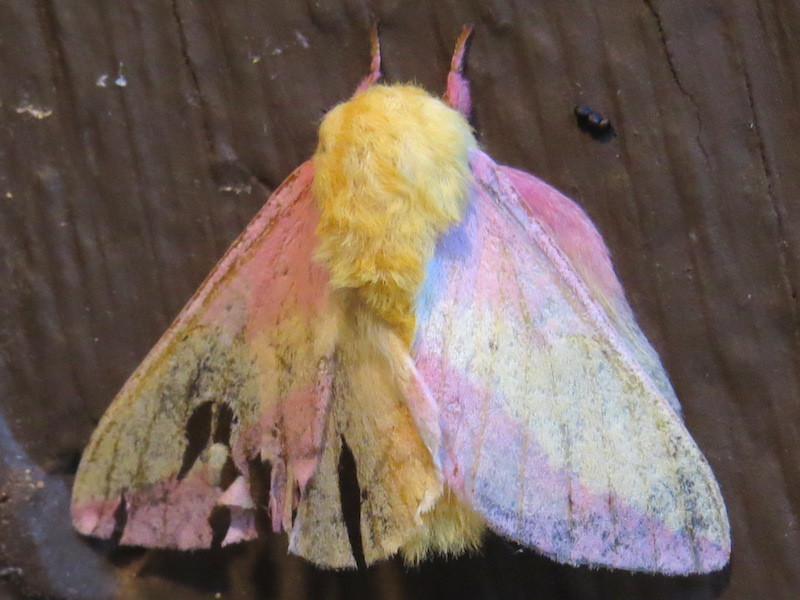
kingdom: Animalia
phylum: Arthropoda
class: Insecta
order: Lepidoptera
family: Saturniidae
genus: Dryocampa
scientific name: Dryocampa rubicunda
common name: Rosy maple moth
